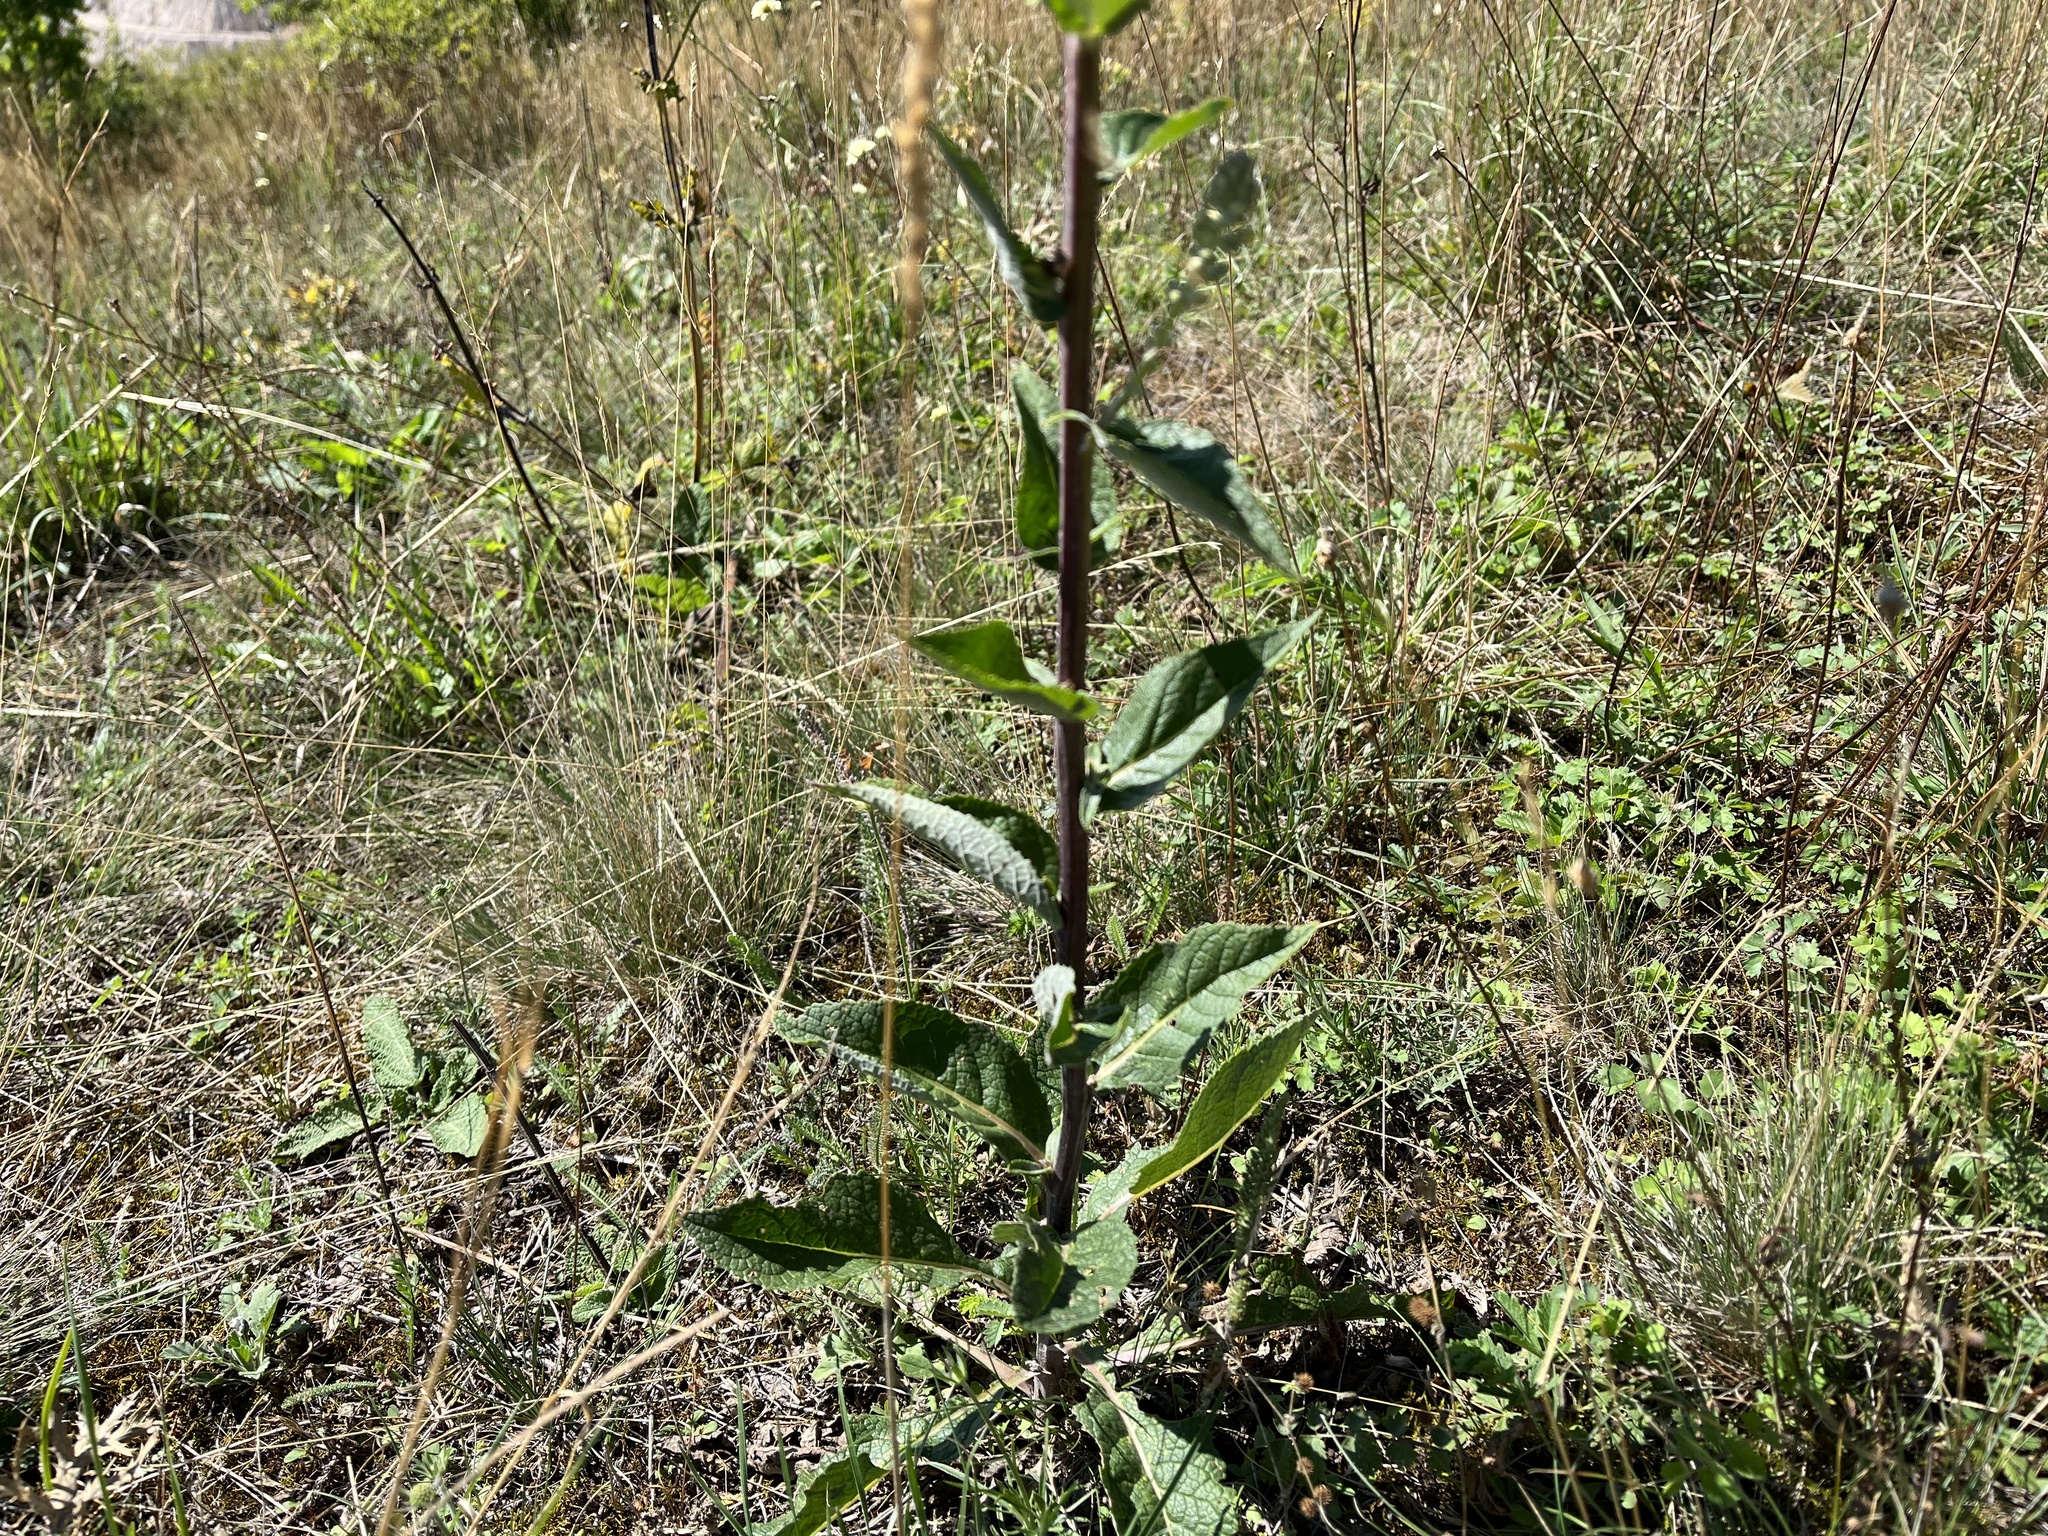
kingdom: Plantae
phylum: Tracheophyta
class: Magnoliopsida
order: Lamiales
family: Scrophulariaceae
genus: Verbascum
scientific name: Verbascum lychnitis
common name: White mullein
